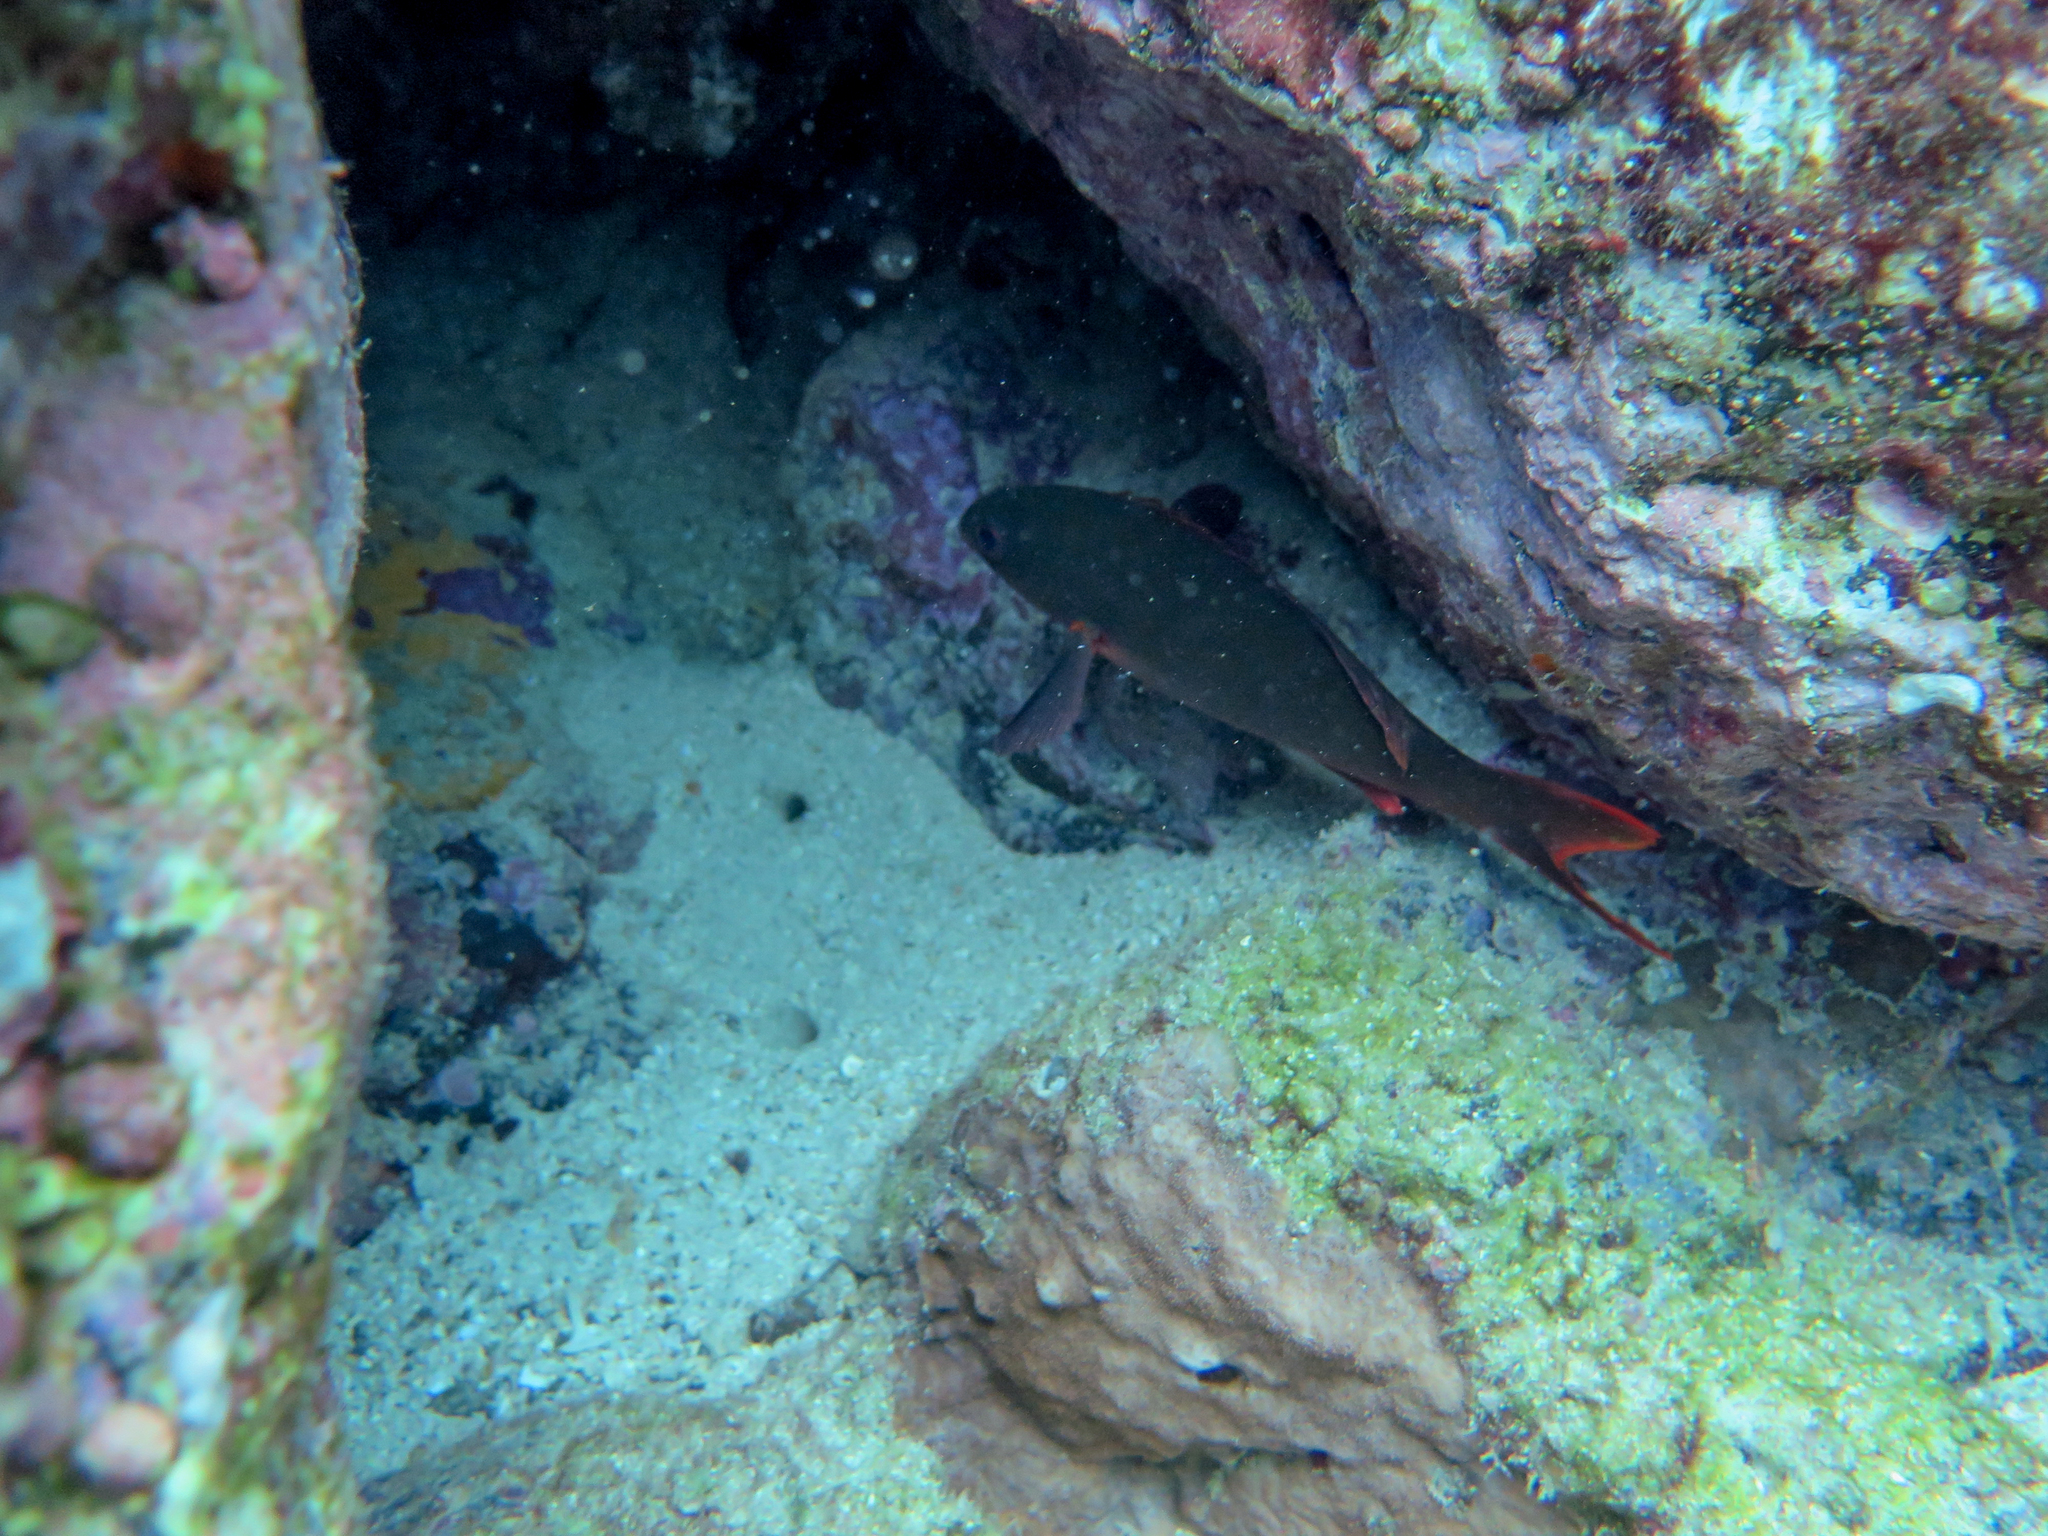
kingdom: Animalia
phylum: Chordata
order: Perciformes
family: Serranidae
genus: Paranthias
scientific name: Paranthias colonus
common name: Pacific creole-fish
